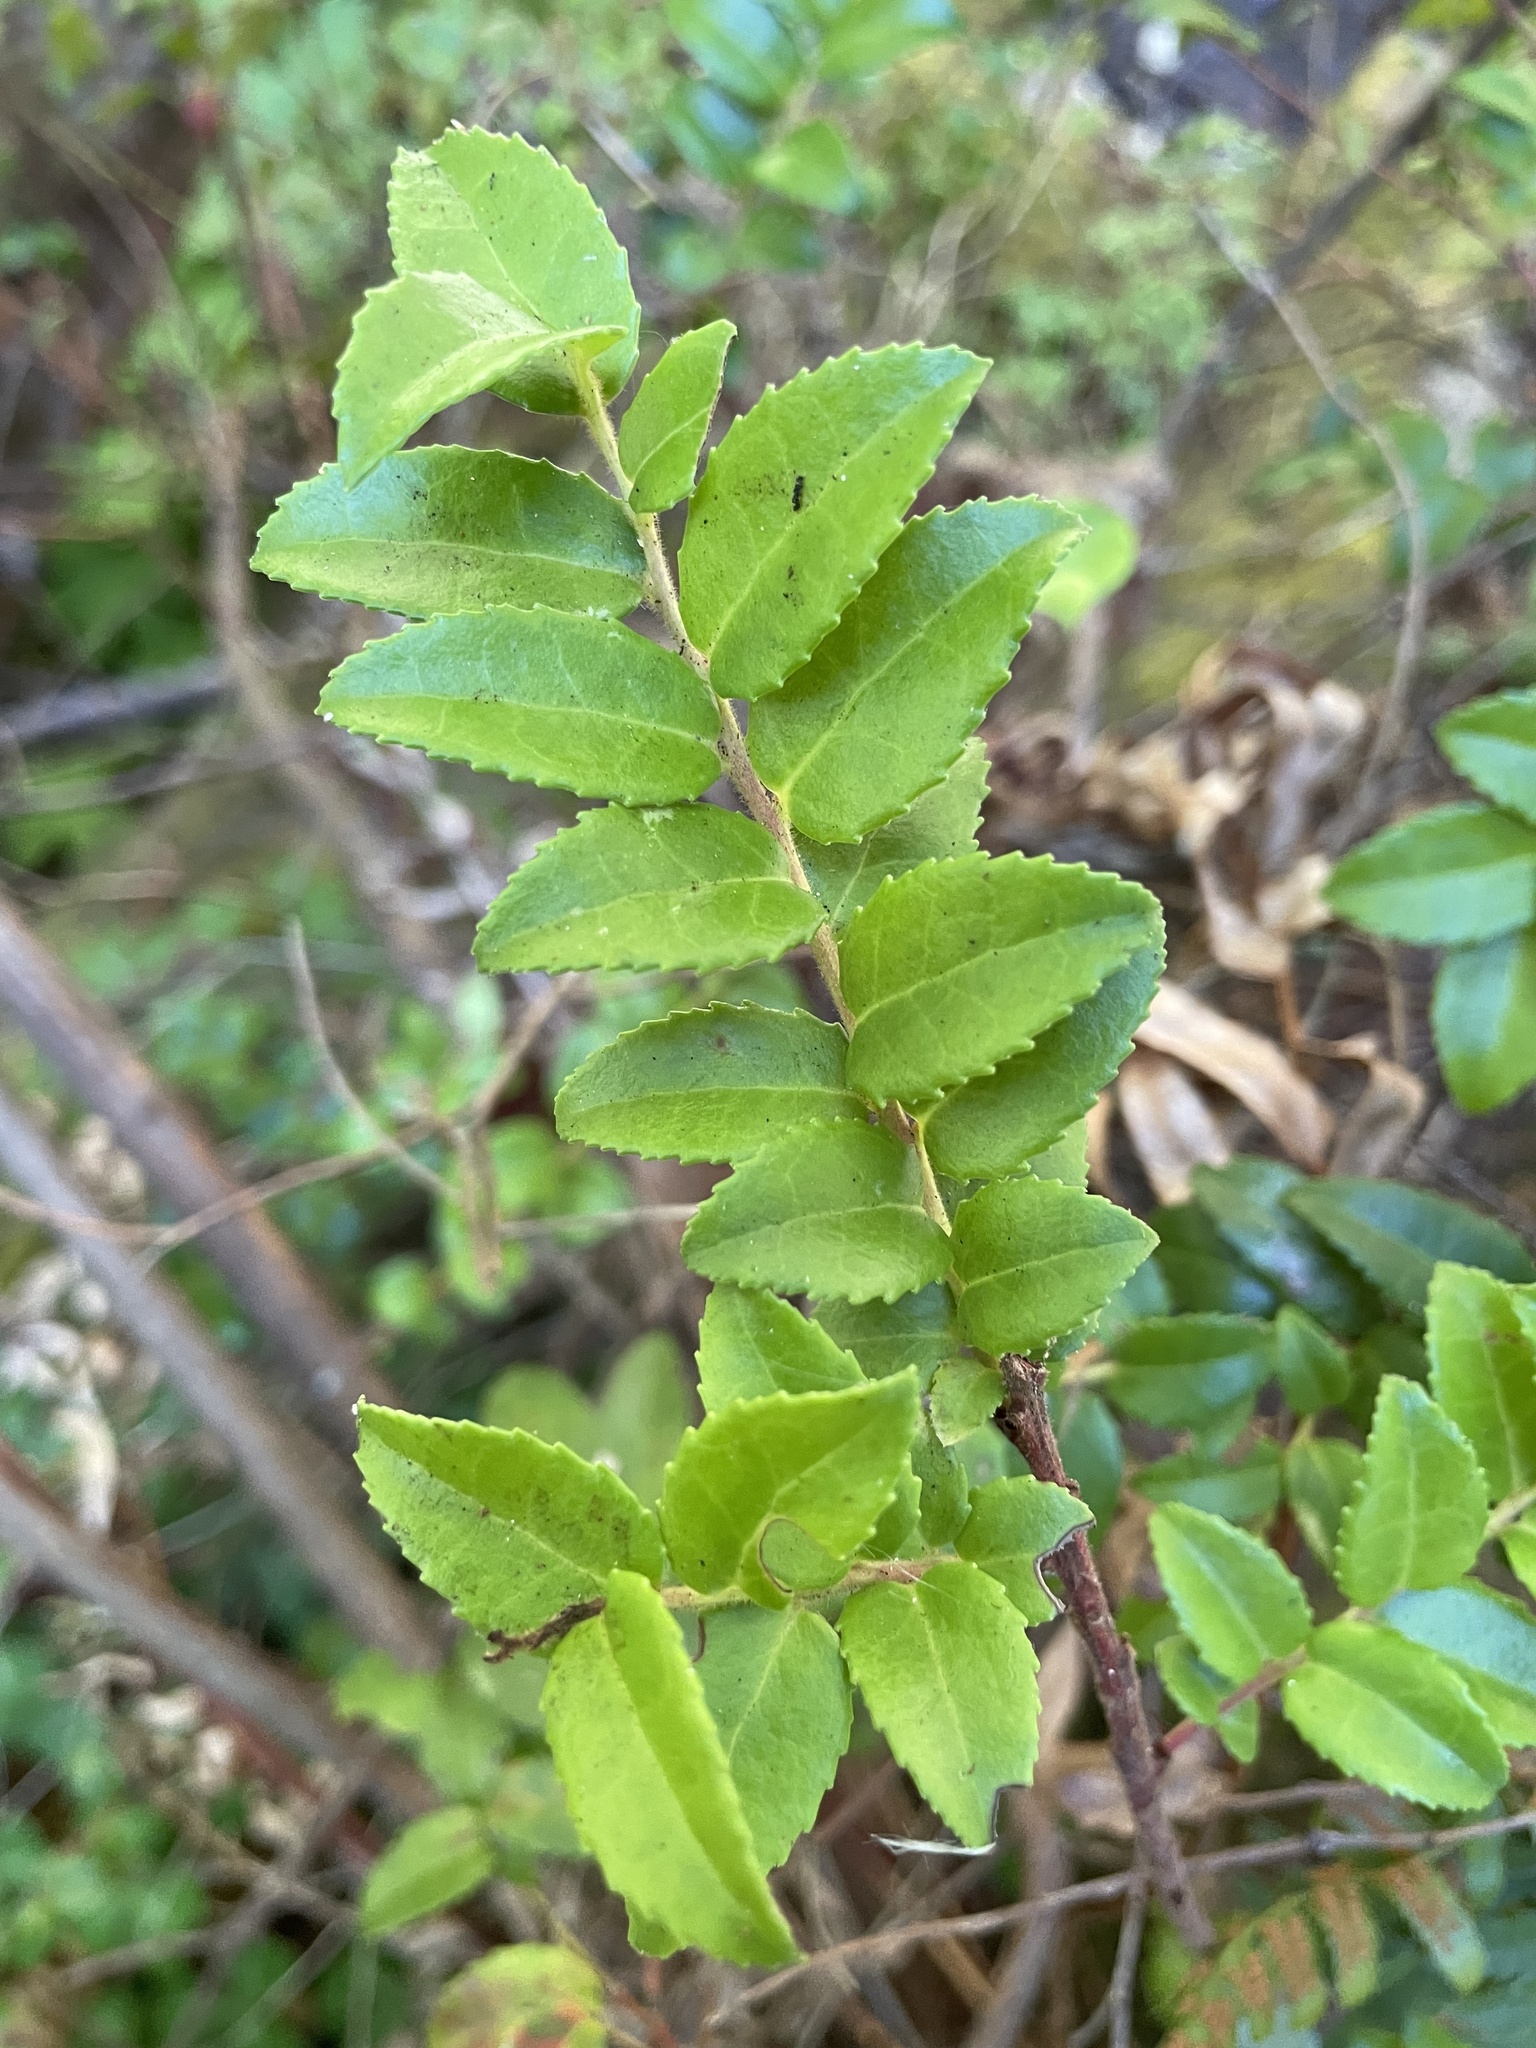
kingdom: Plantae
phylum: Tracheophyta
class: Magnoliopsida
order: Ericales
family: Ericaceae
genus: Vaccinium
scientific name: Vaccinium ovatum
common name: California-huckleberry
